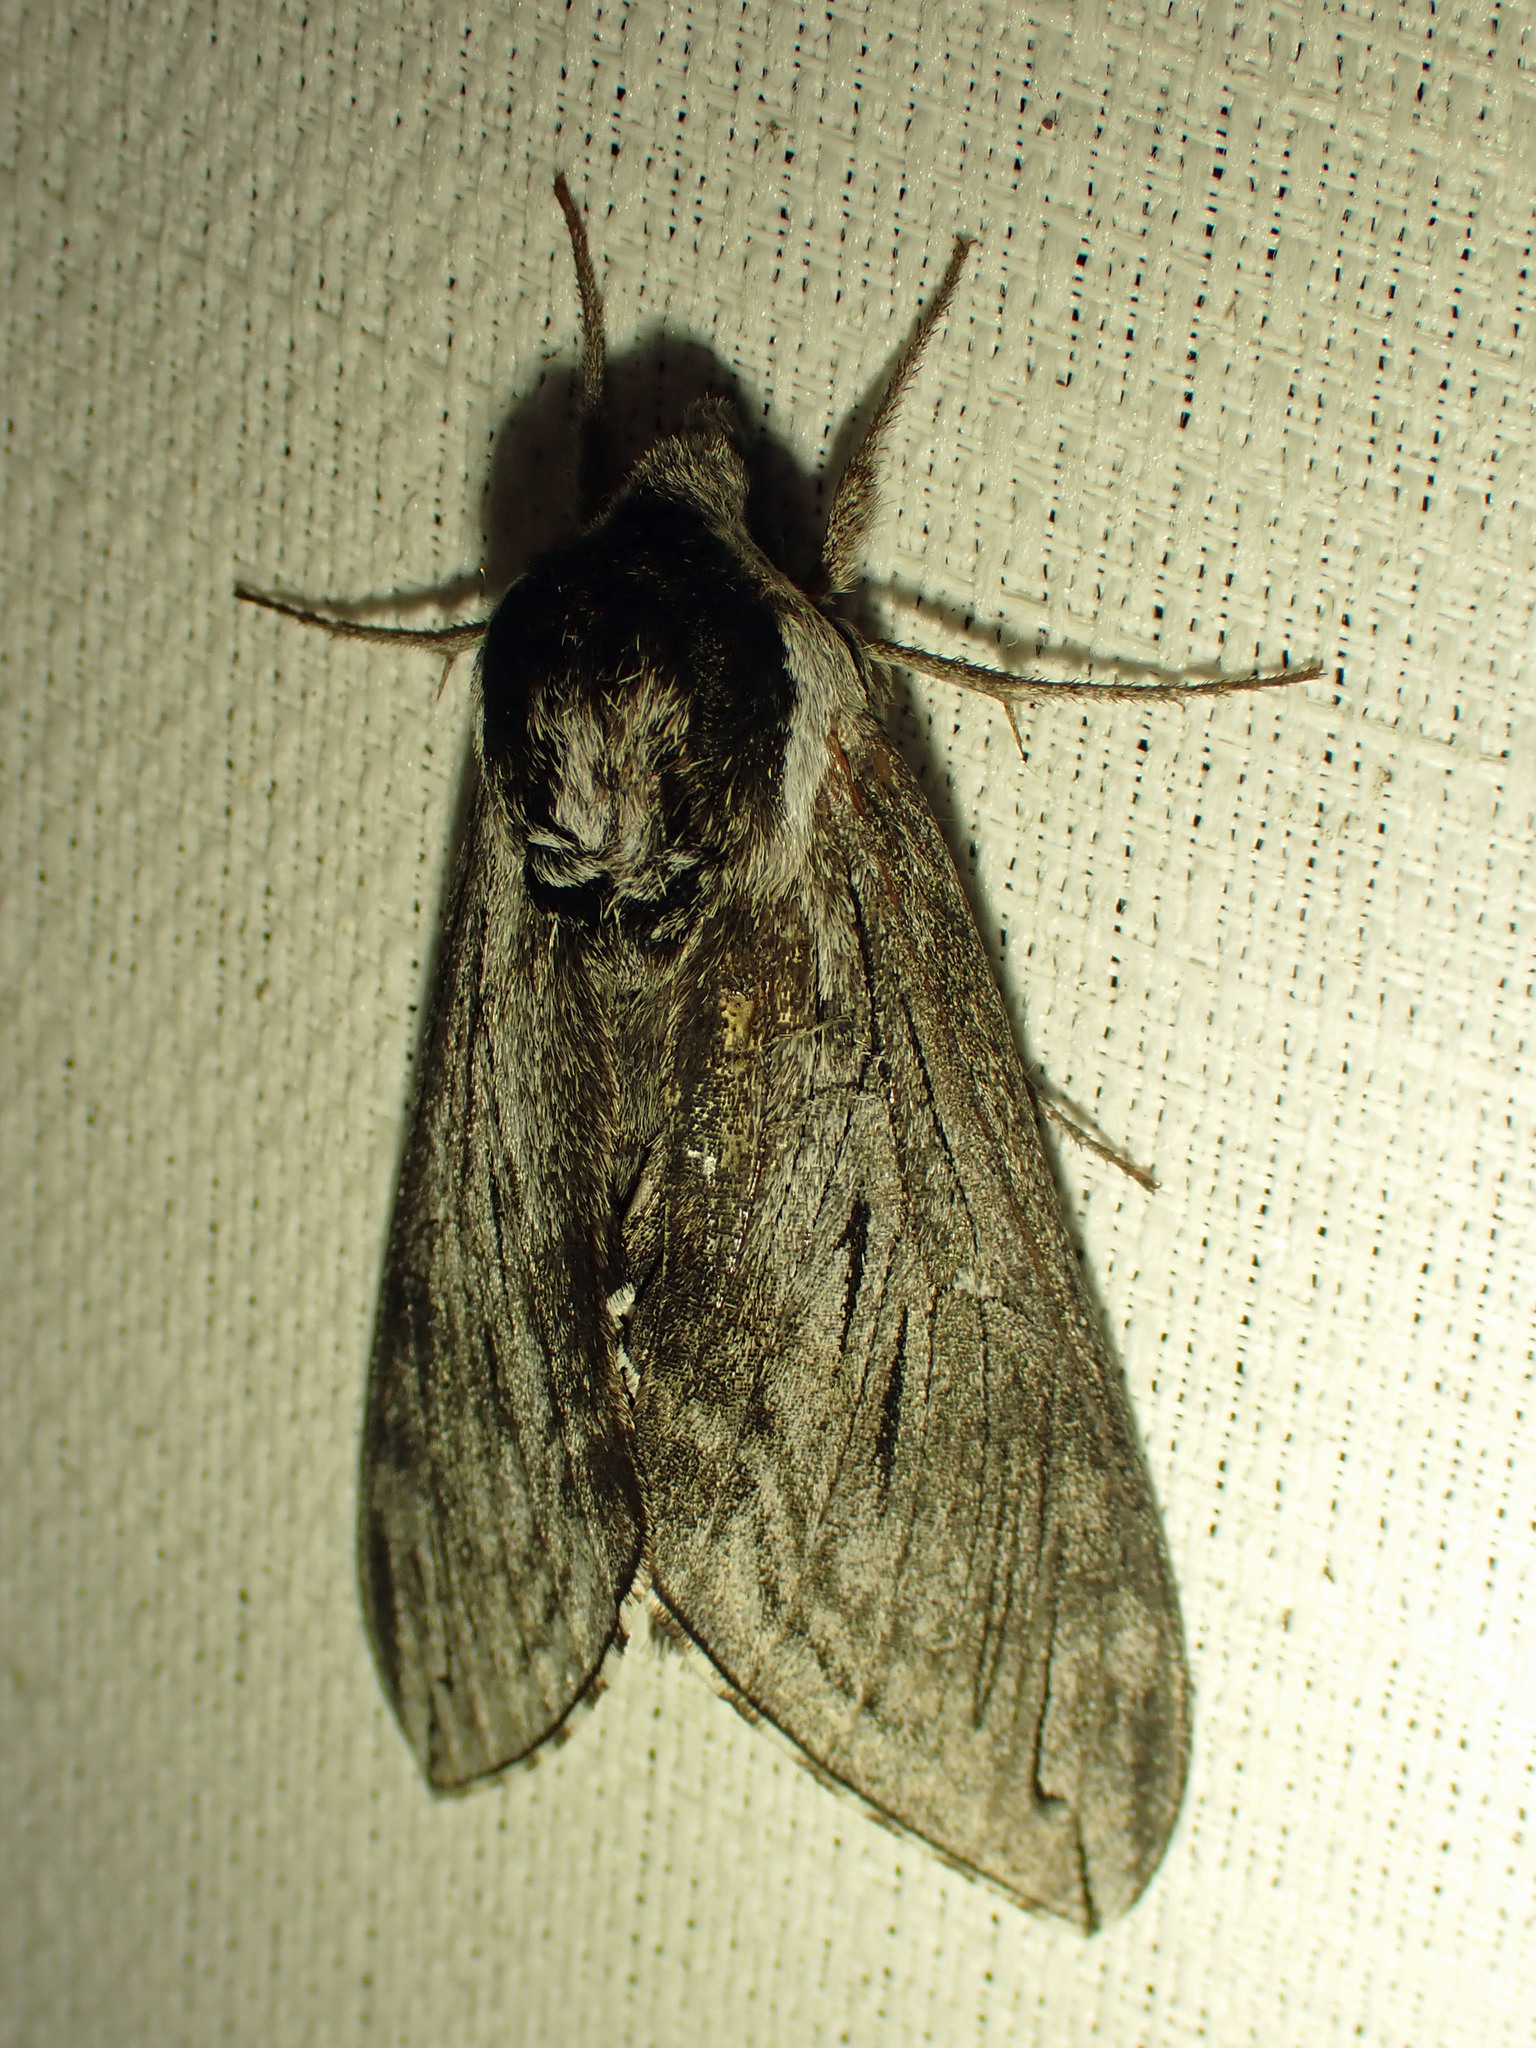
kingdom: Animalia
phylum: Arthropoda
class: Insecta
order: Lepidoptera
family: Sphingidae
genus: Sphinx
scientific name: Sphinx poecila
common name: Northern apple sphinx
